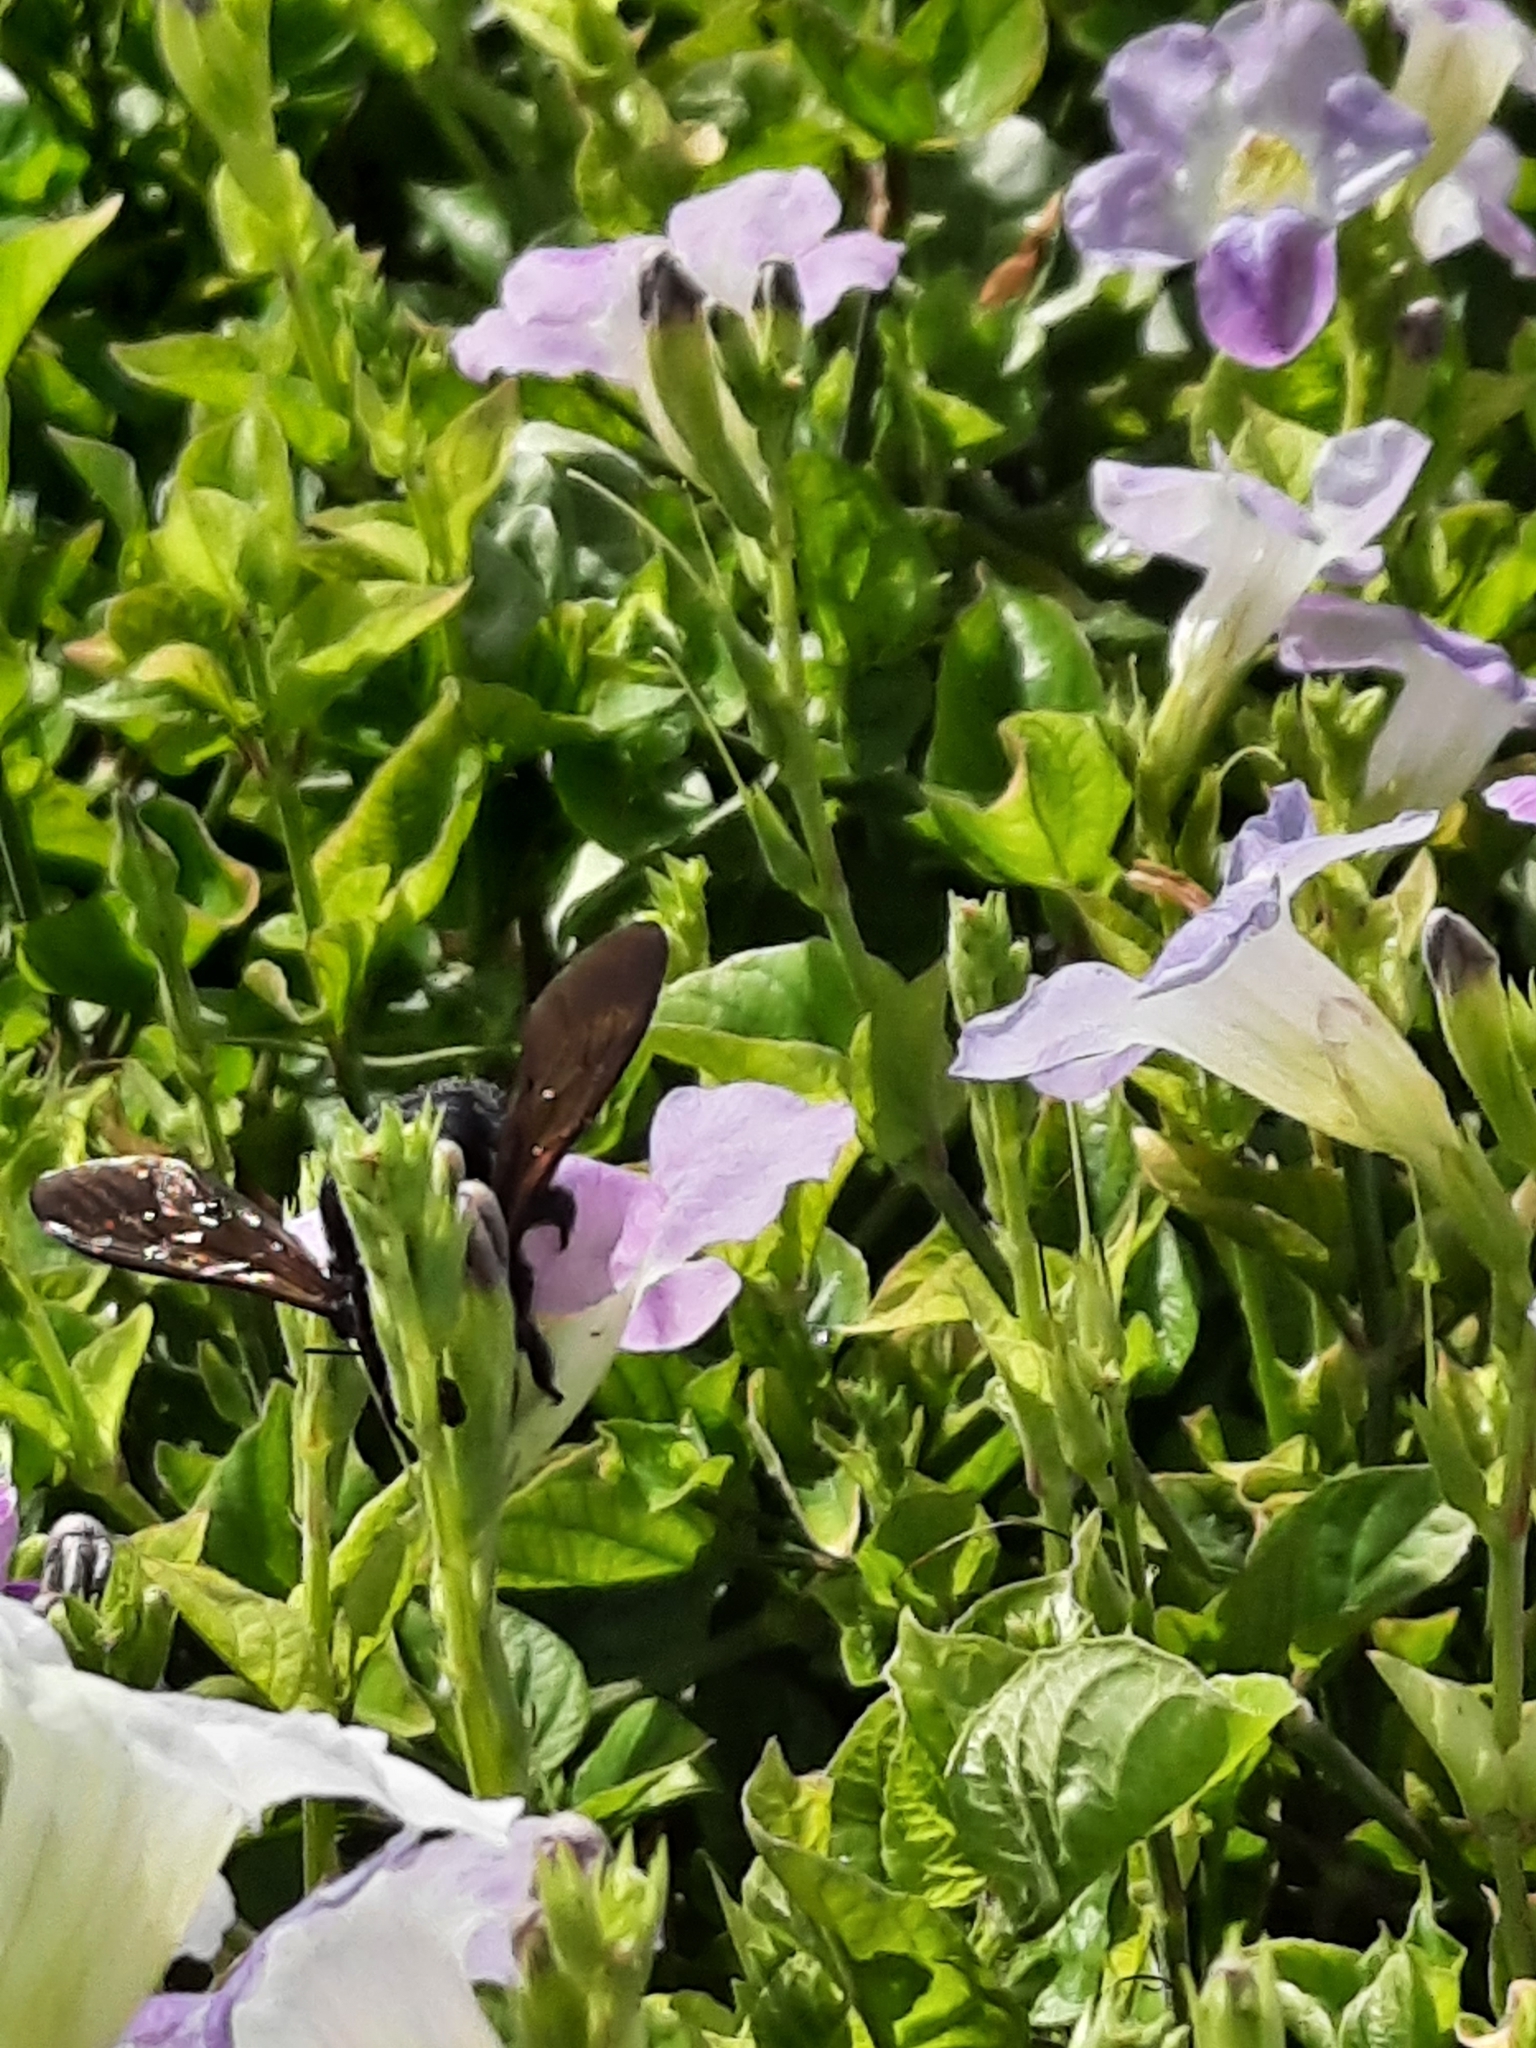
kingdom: Animalia
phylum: Arthropoda
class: Insecta
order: Hymenoptera
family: Apidae
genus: Xylocopa
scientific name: Xylocopa sonorina
